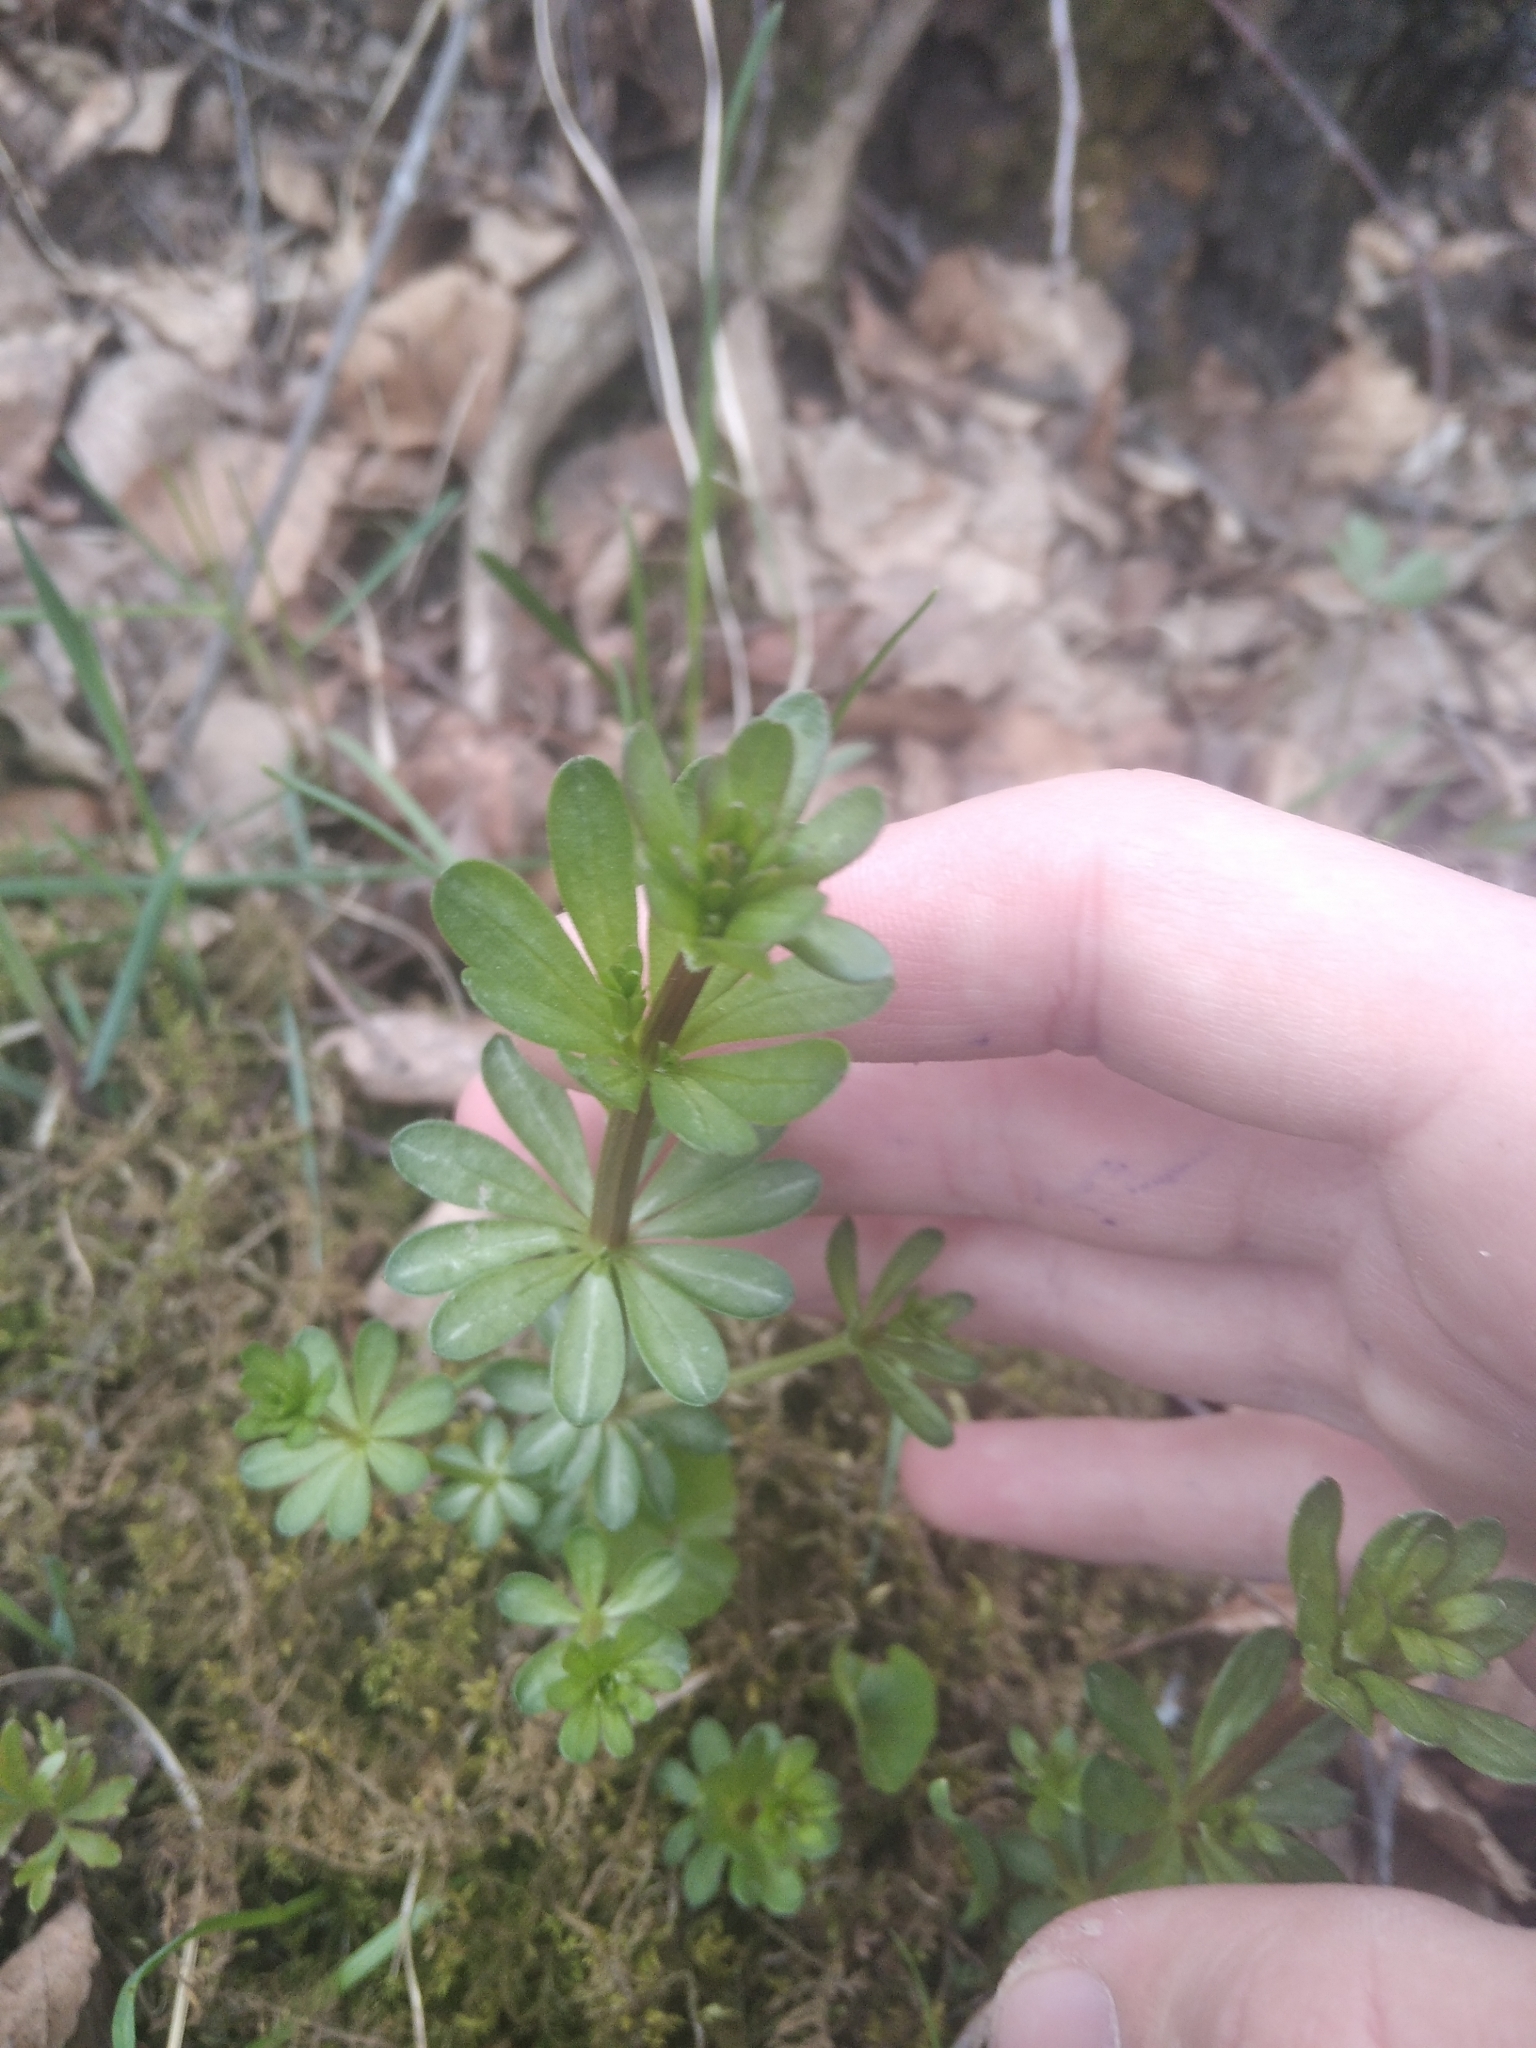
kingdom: Plantae
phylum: Tracheophyta
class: Magnoliopsida
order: Gentianales
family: Rubiaceae
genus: Galium
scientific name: Galium mollugo
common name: Hedge bedstraw
